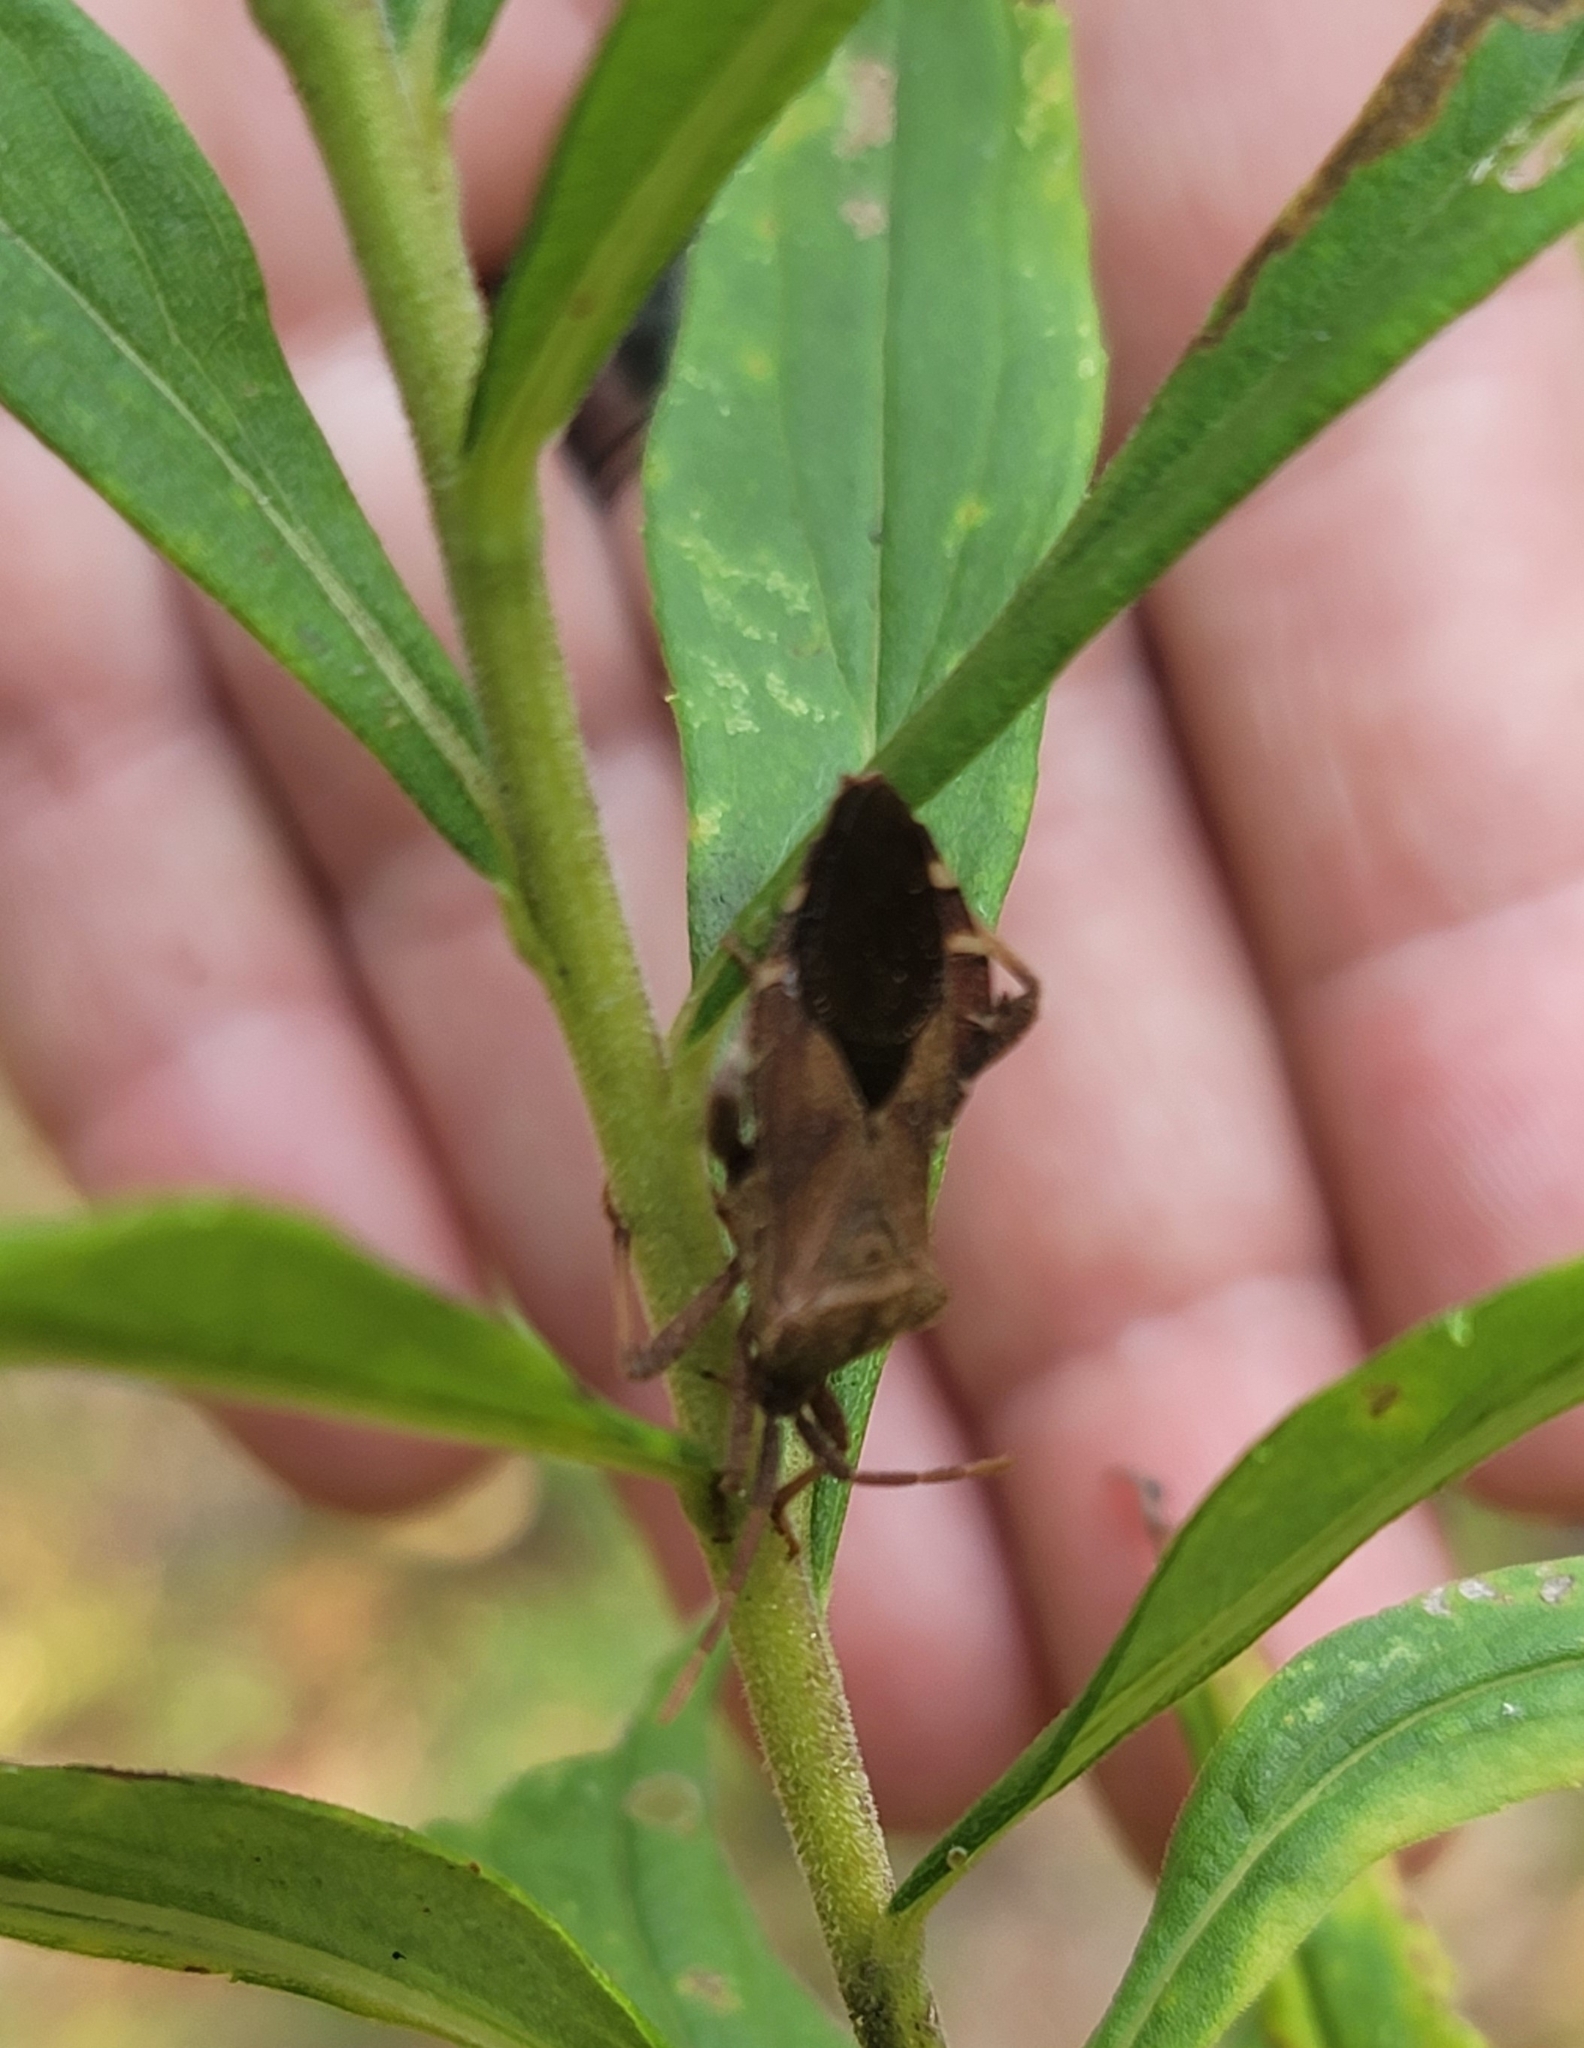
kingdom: Animalia
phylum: Arthropoda
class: Insecta
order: Hemiptera
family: Coreidae
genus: Piezogaster
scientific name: Piezogaster calcarator
